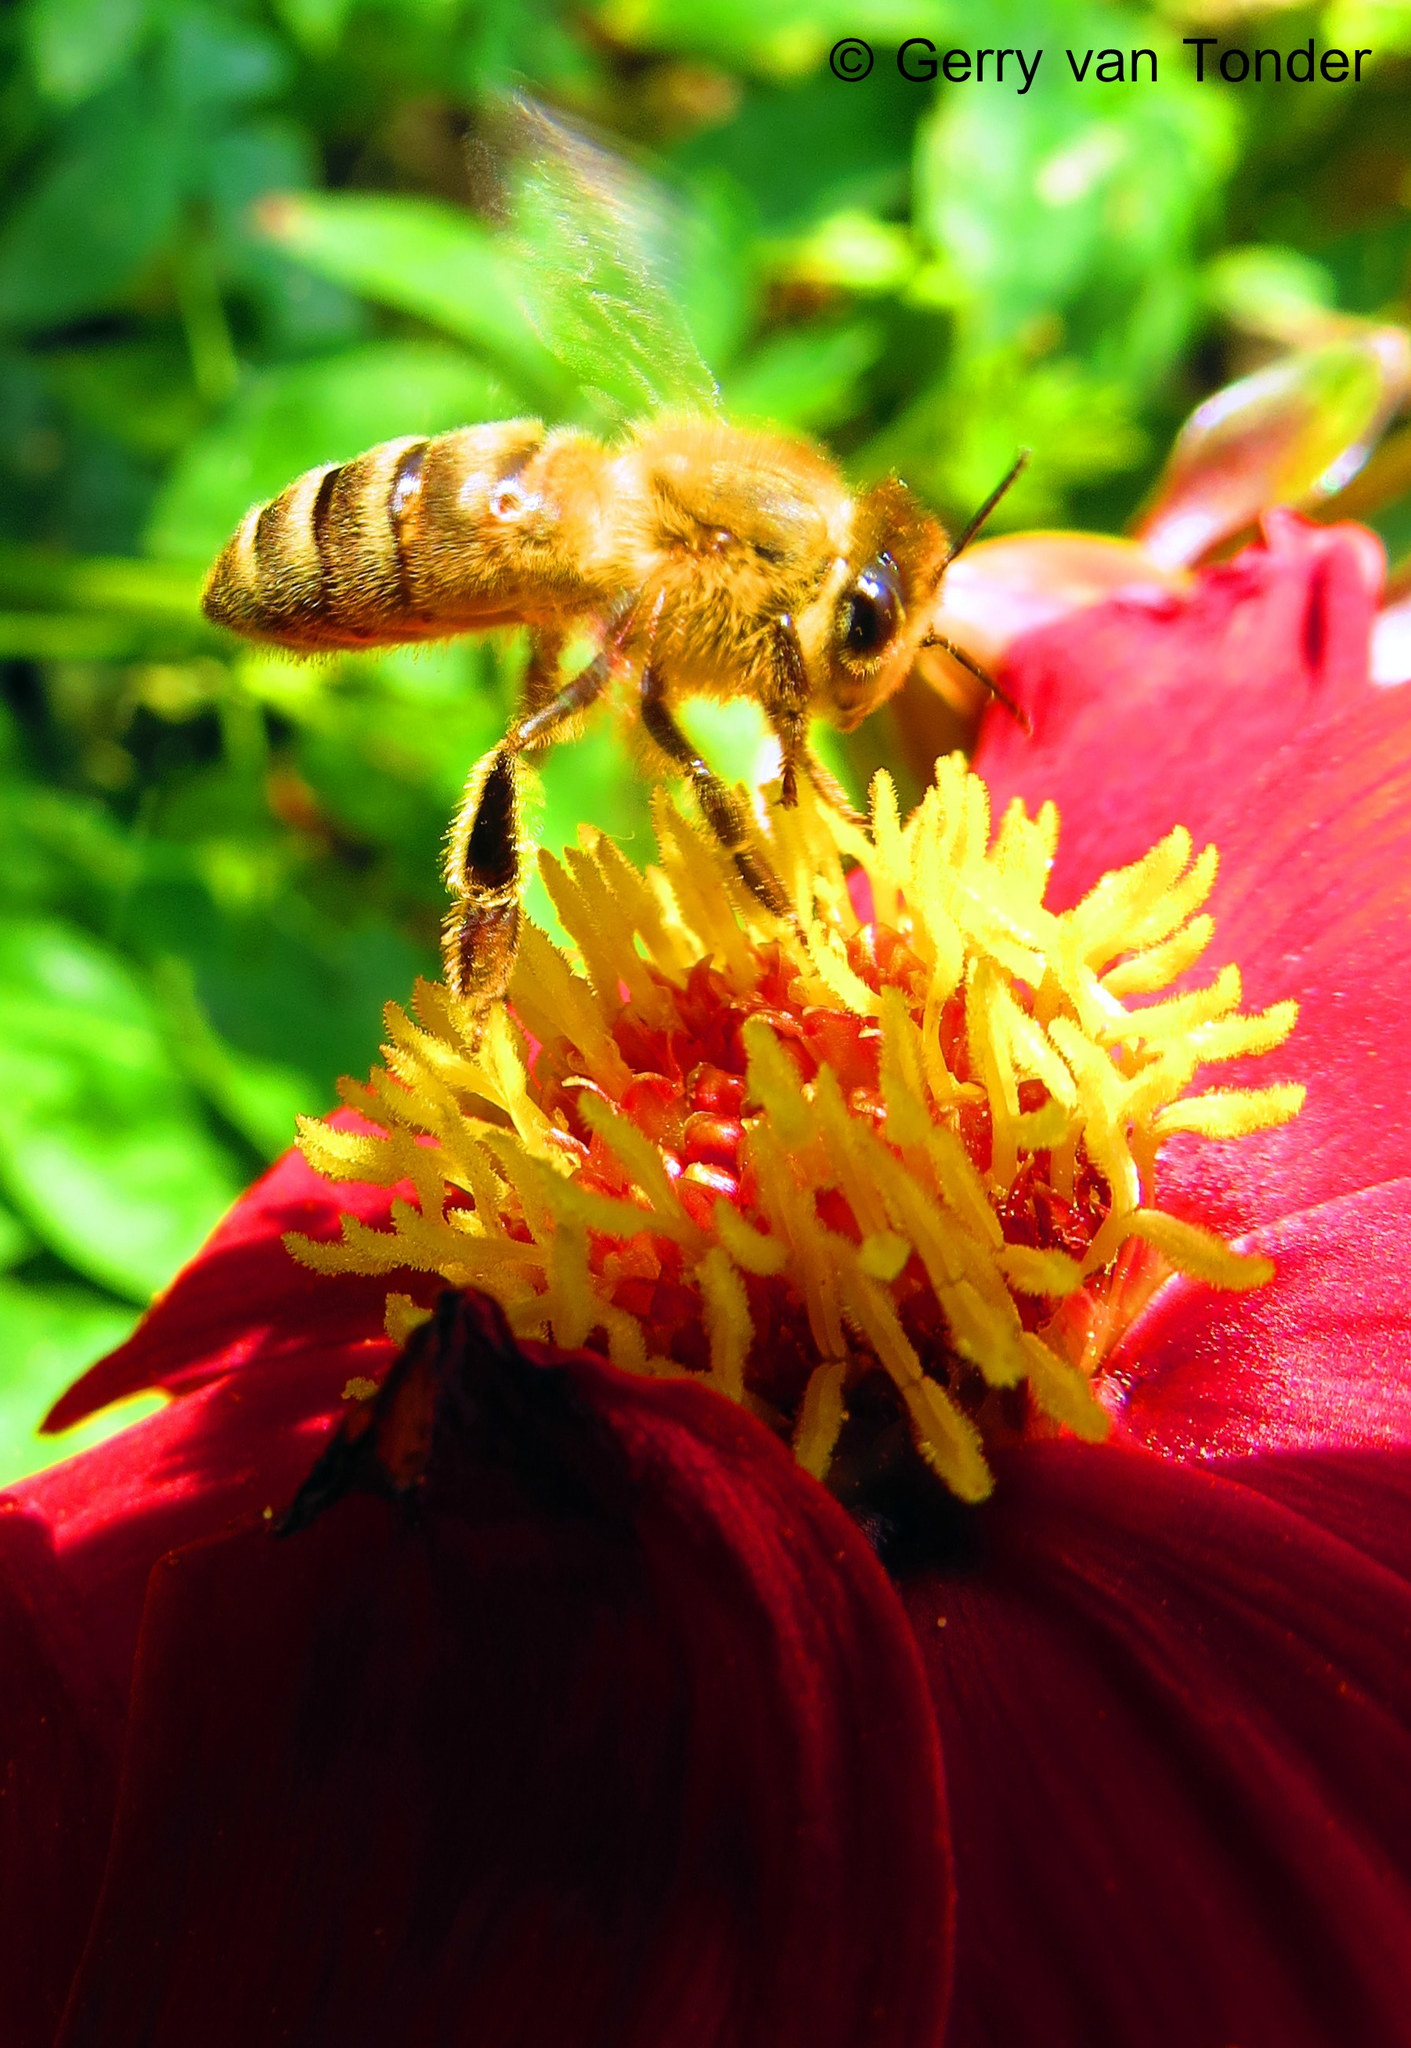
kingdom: Animalia
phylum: Arthropoda
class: Insecta
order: Hymenoptera
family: Apidae
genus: Apis
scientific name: Apis mellifera
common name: Honey bee
